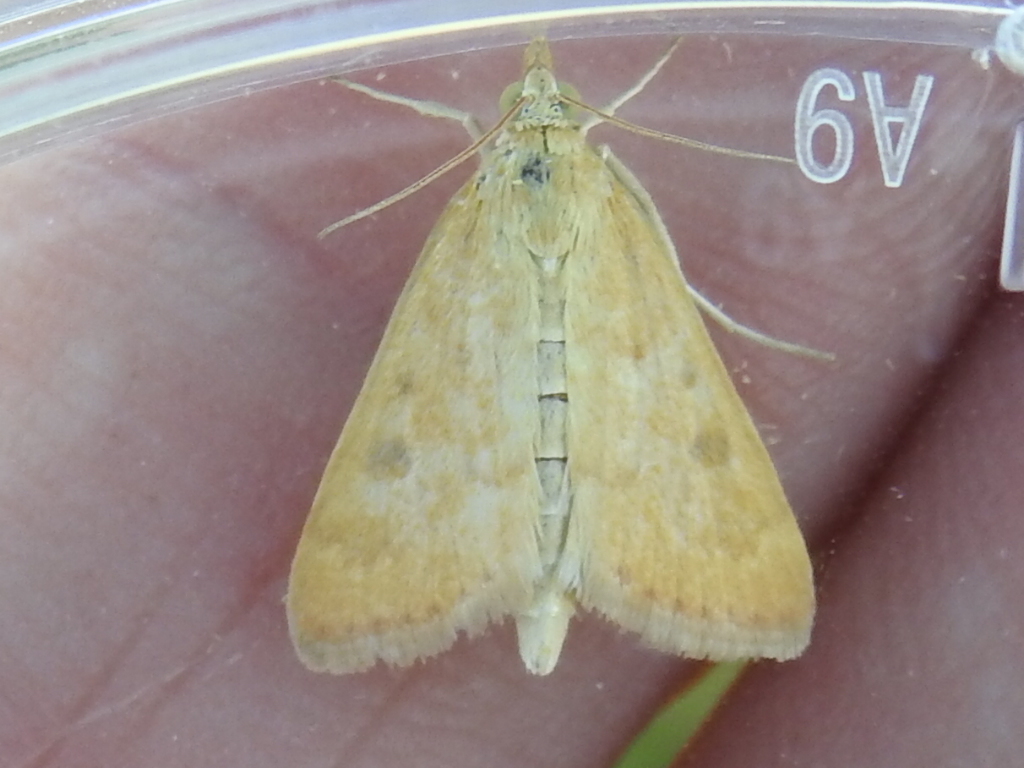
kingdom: Animalia
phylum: Arthropoda
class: Insecta
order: Lepidoptera
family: Crambidae
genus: Achyra
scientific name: Achyra rantalis
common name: Garden webworm
